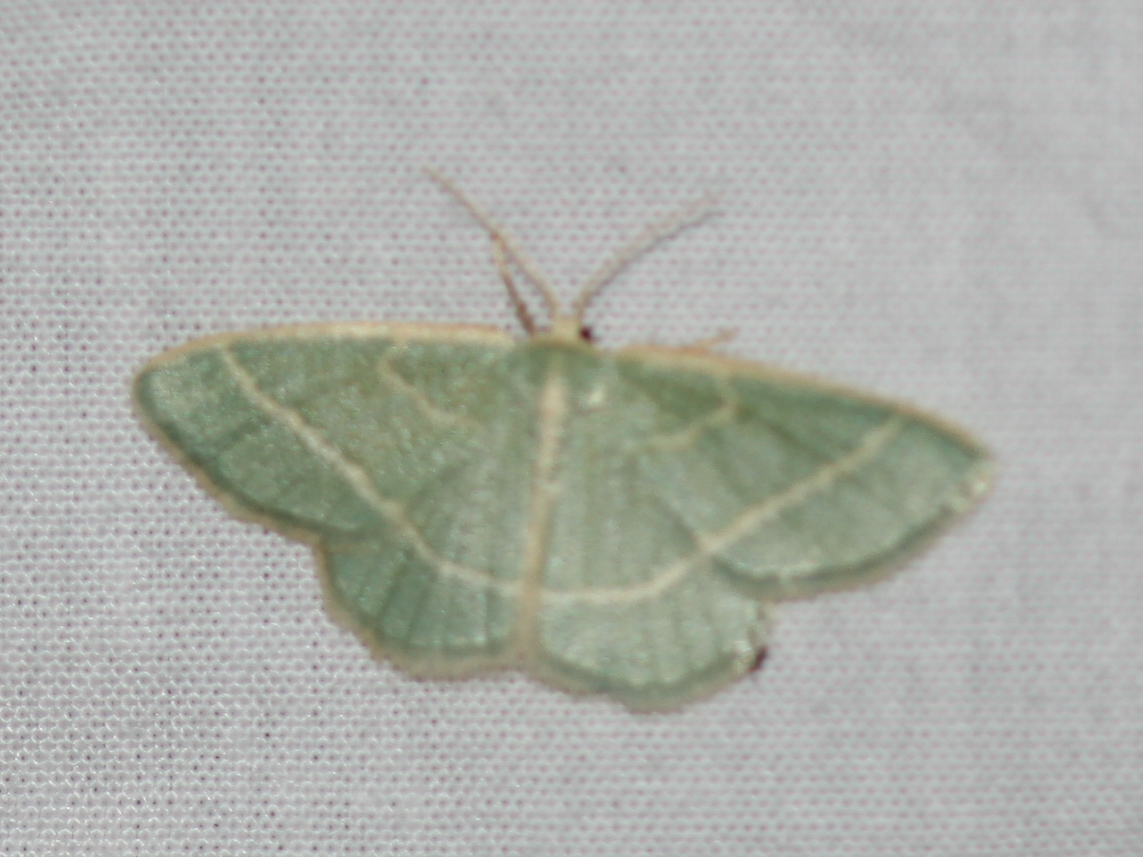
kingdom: Animalia
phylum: Arthropoda
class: Insecta
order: Lepidoptera
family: Geometridae
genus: Chlorochlamys
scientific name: Chlorochlamys chloroleucaria
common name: Blackberry looper
